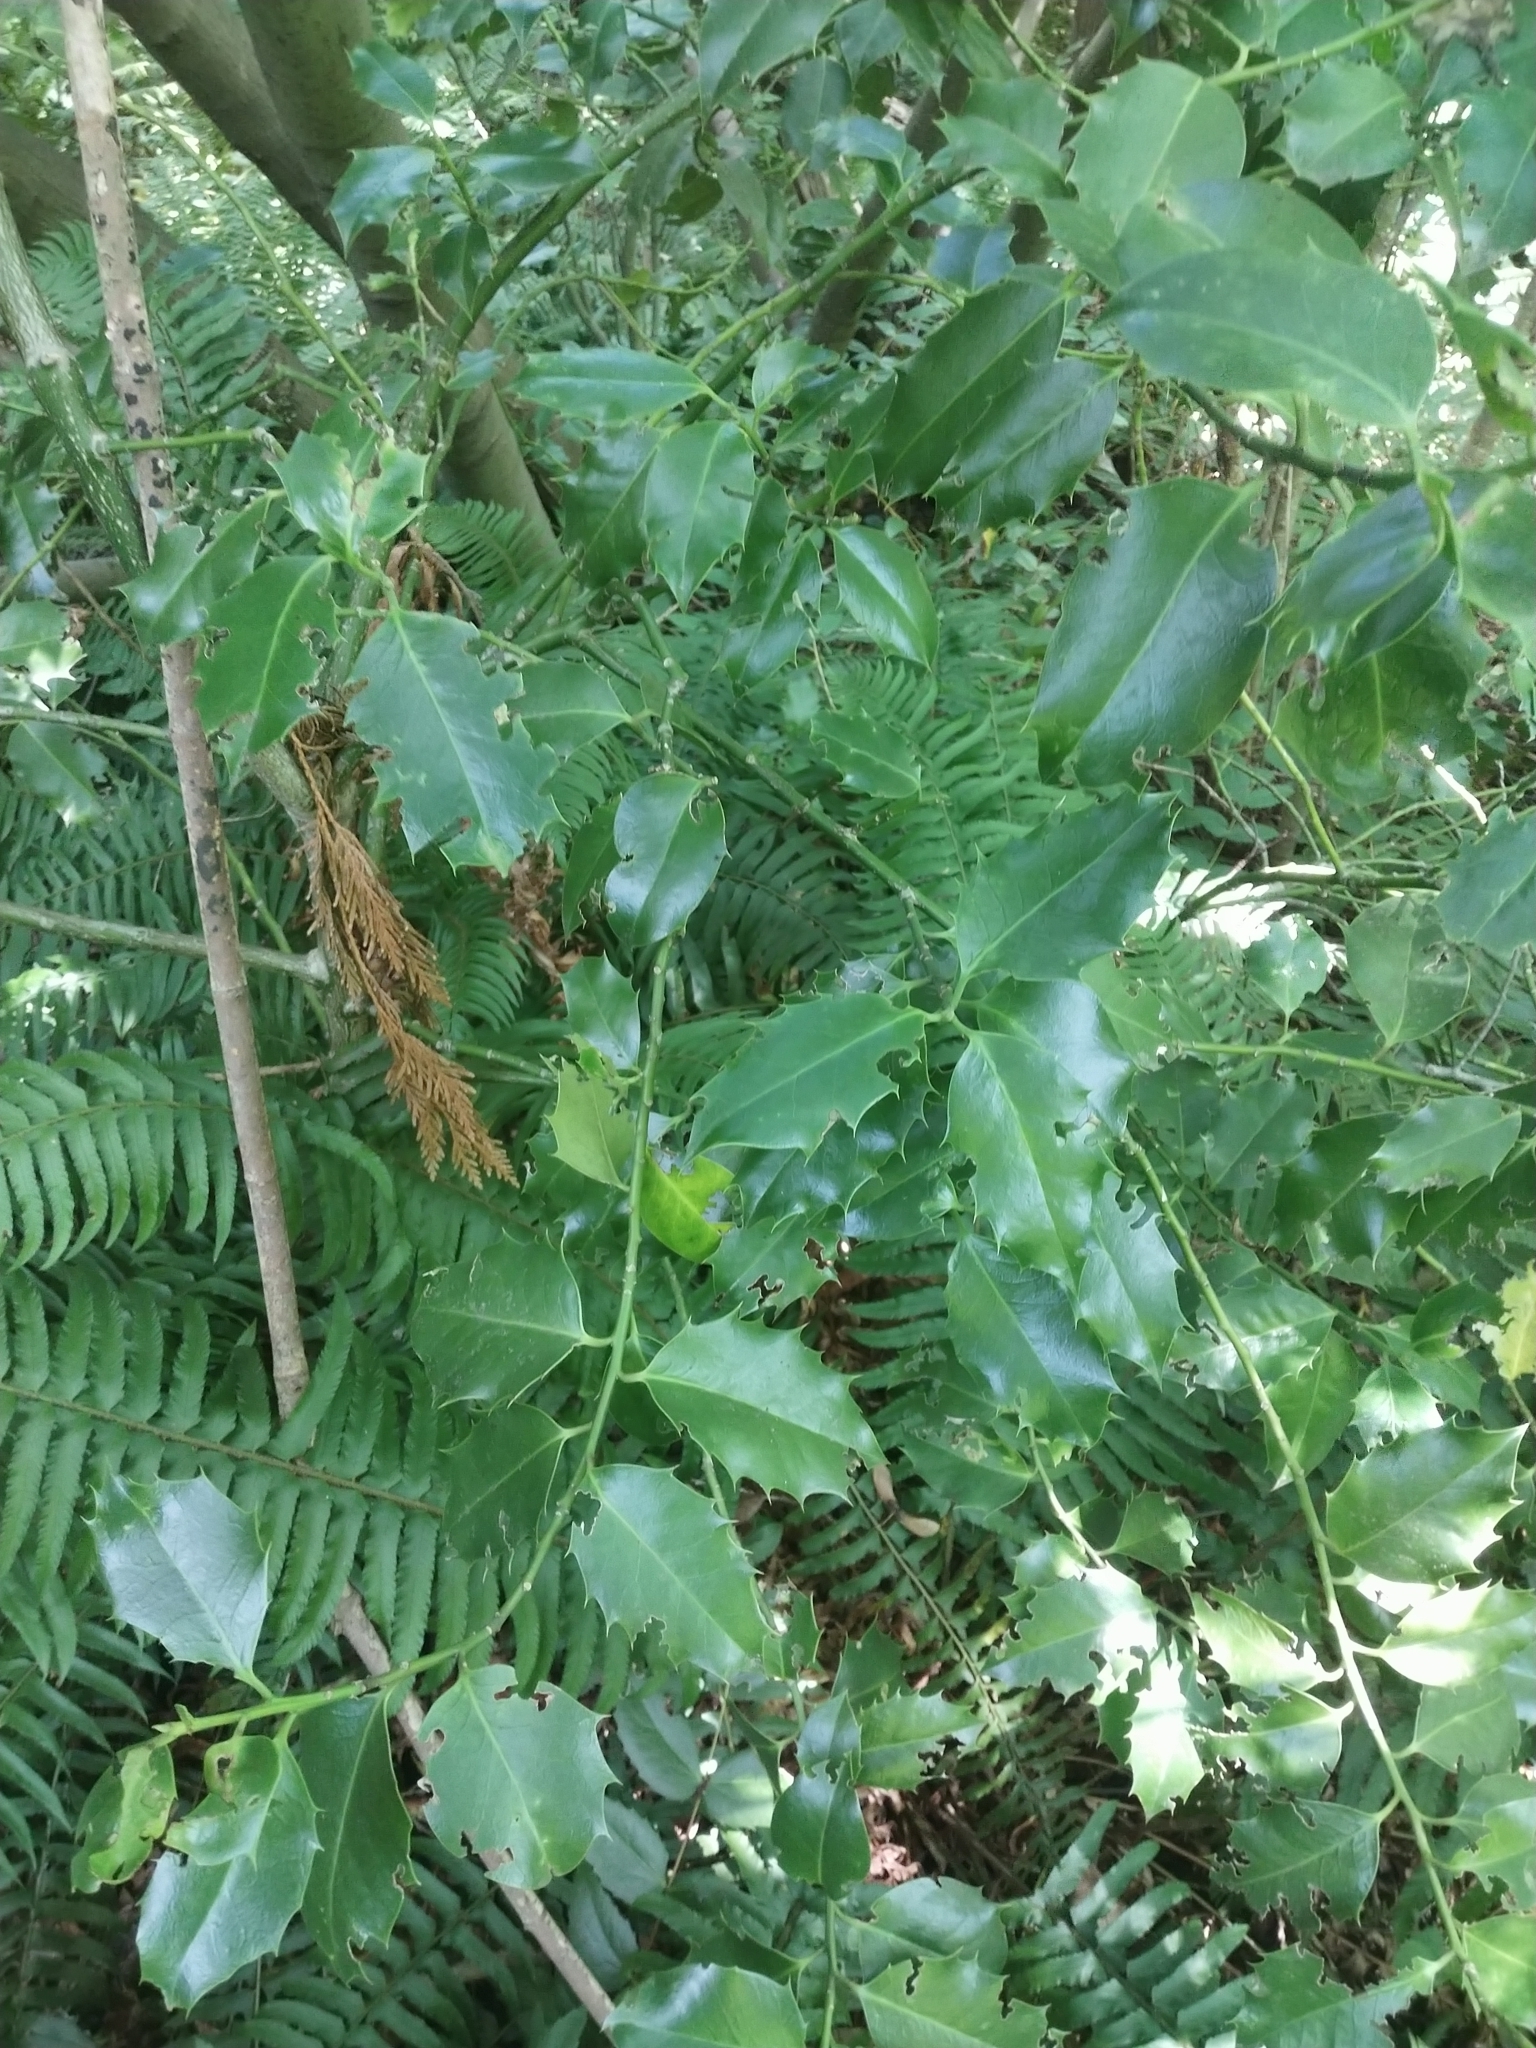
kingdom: Plantae
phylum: Tracheophyta
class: Magnoliopsida
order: Aquifoliales
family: Aquifoliaceae
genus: Ilex
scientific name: Ilex aquifolium
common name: English holly
